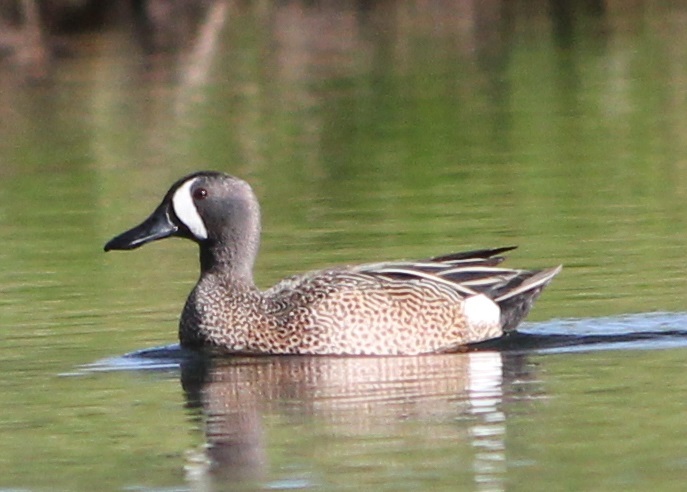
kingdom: Animalia
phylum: Chordata
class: Aves
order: Anseriformes
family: Anatidae
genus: Spatula
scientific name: Spatula discors
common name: Blue-winged teal
